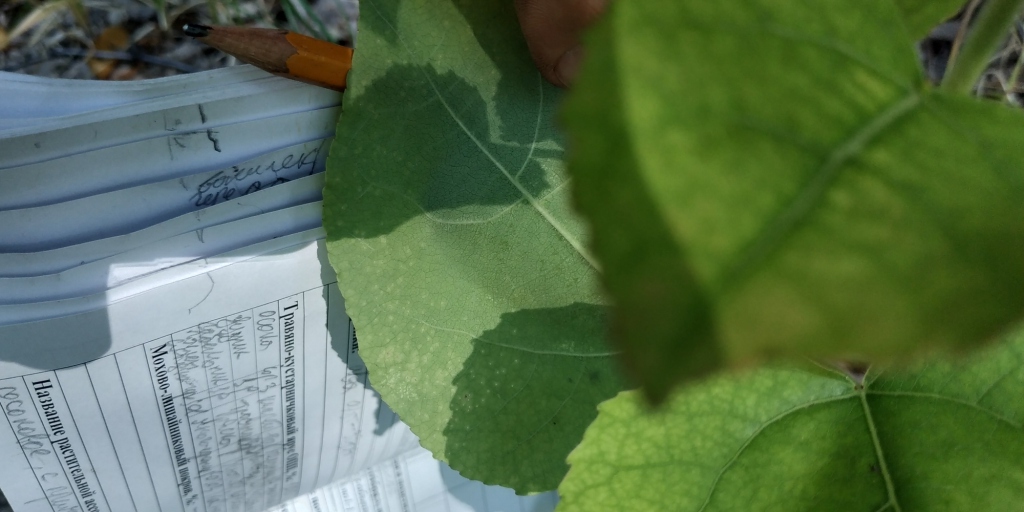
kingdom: Plantae
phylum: Tracheophyta
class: Magnoliopsida
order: Malpighiales
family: Salicaceae
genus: Populus
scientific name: Populus tremula
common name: European aspen
